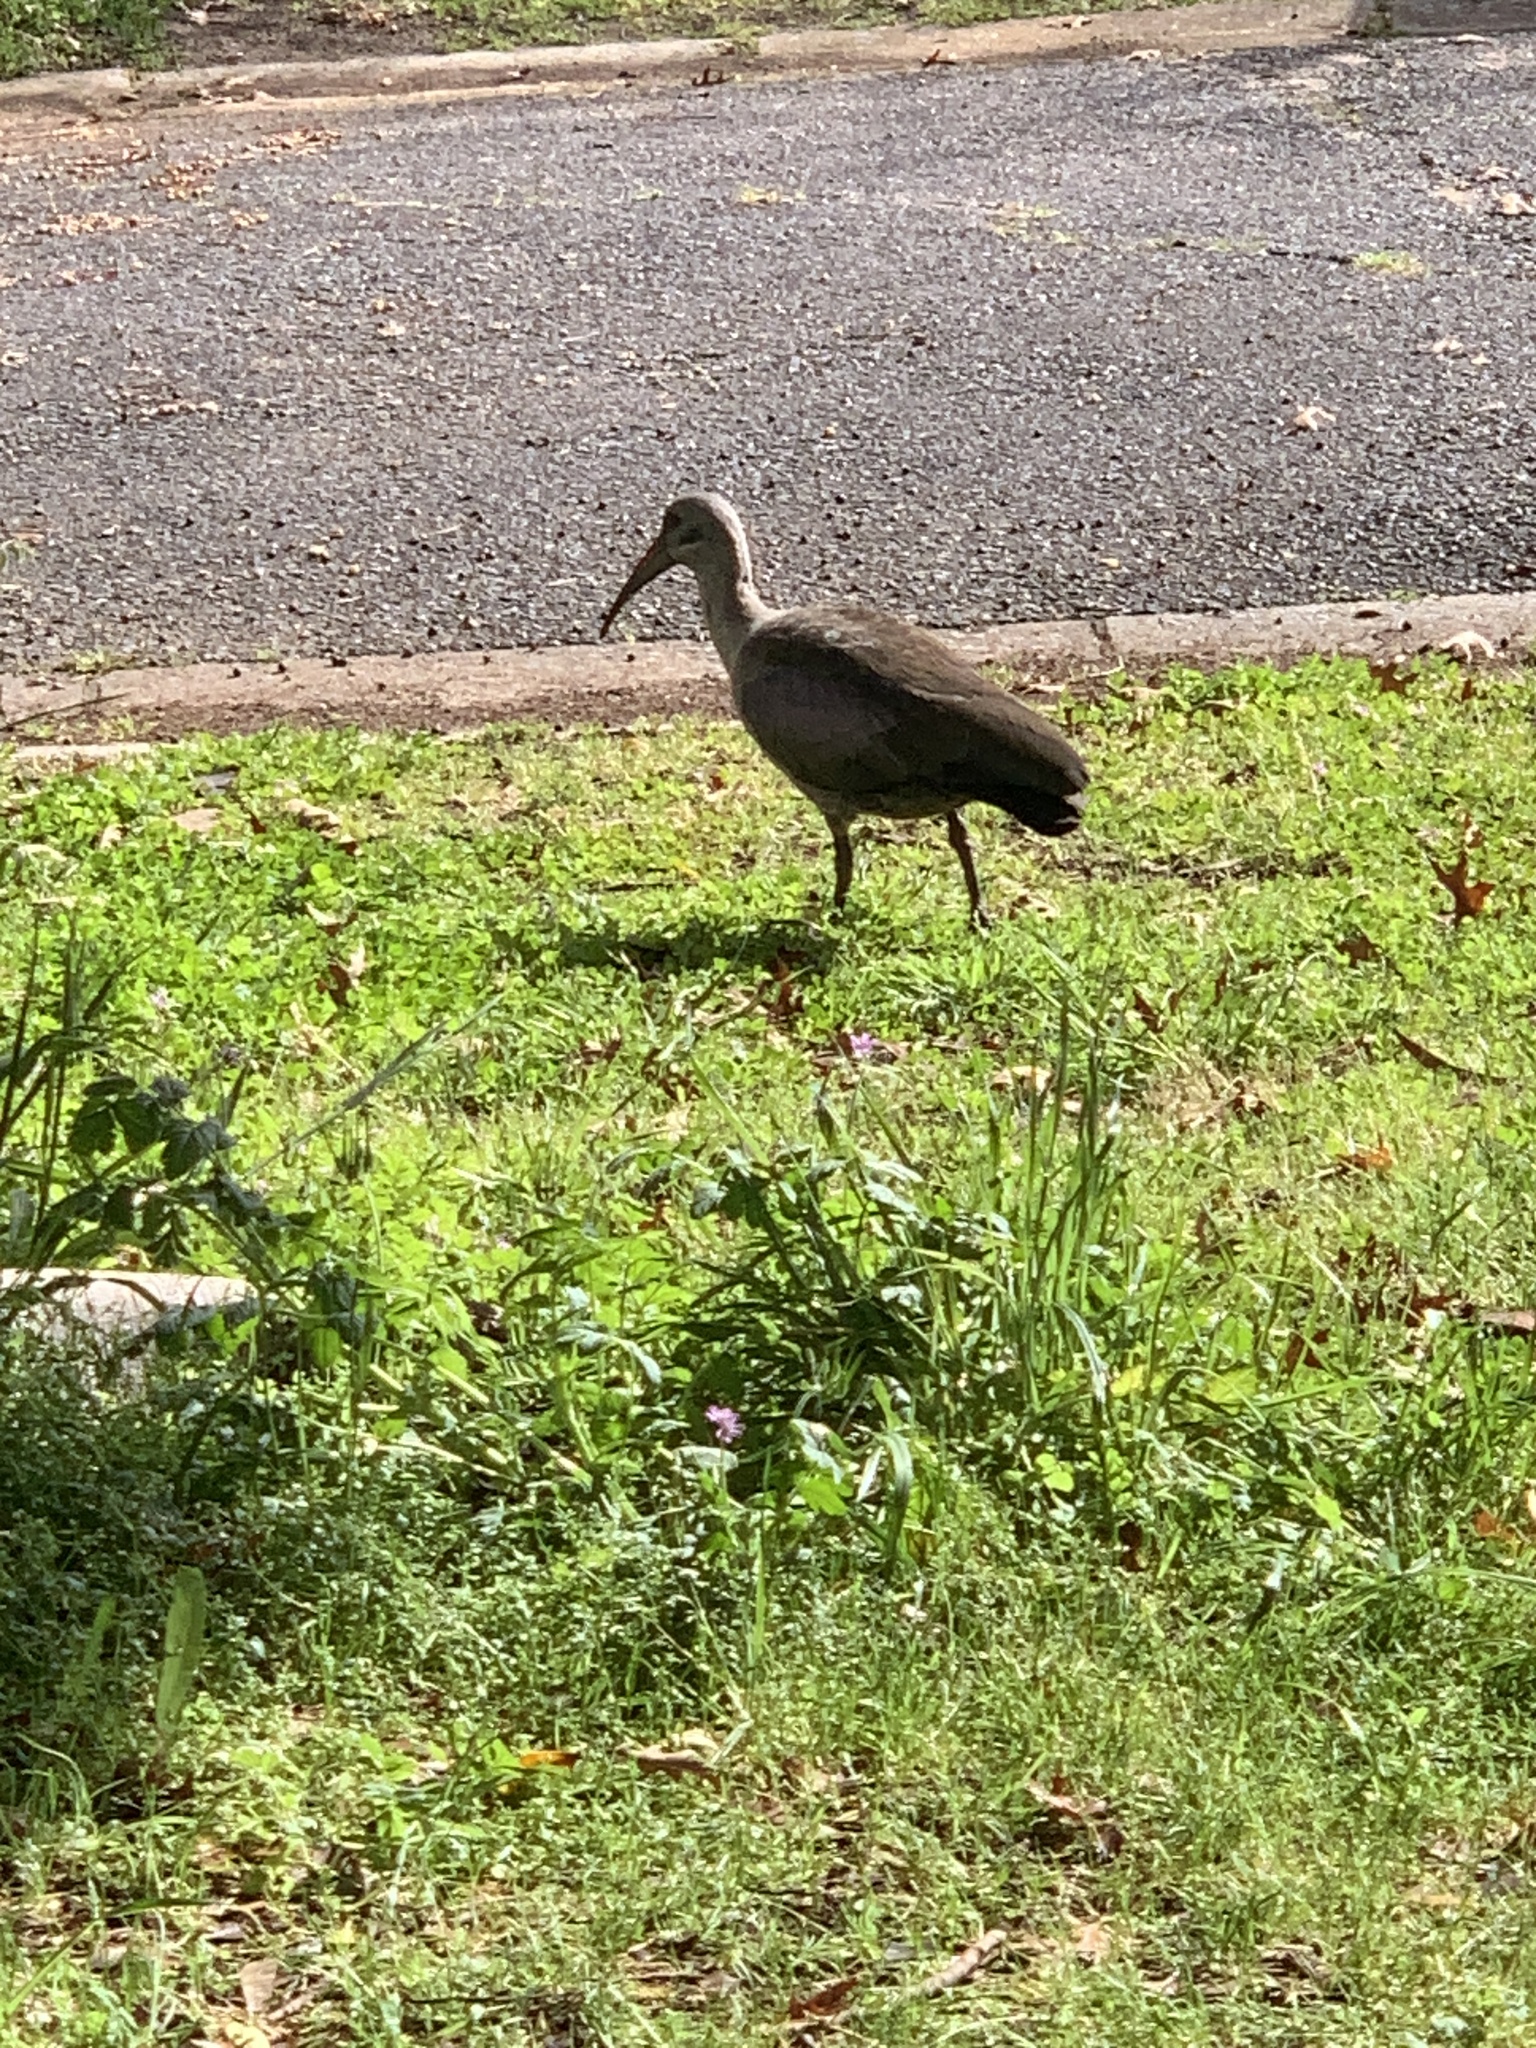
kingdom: Animalia
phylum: Chordata
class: Aves
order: Pelecaniformes
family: Threskiornithidae
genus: Bostrychia
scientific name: Bostrychia hagedash
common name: Hadada ibis
